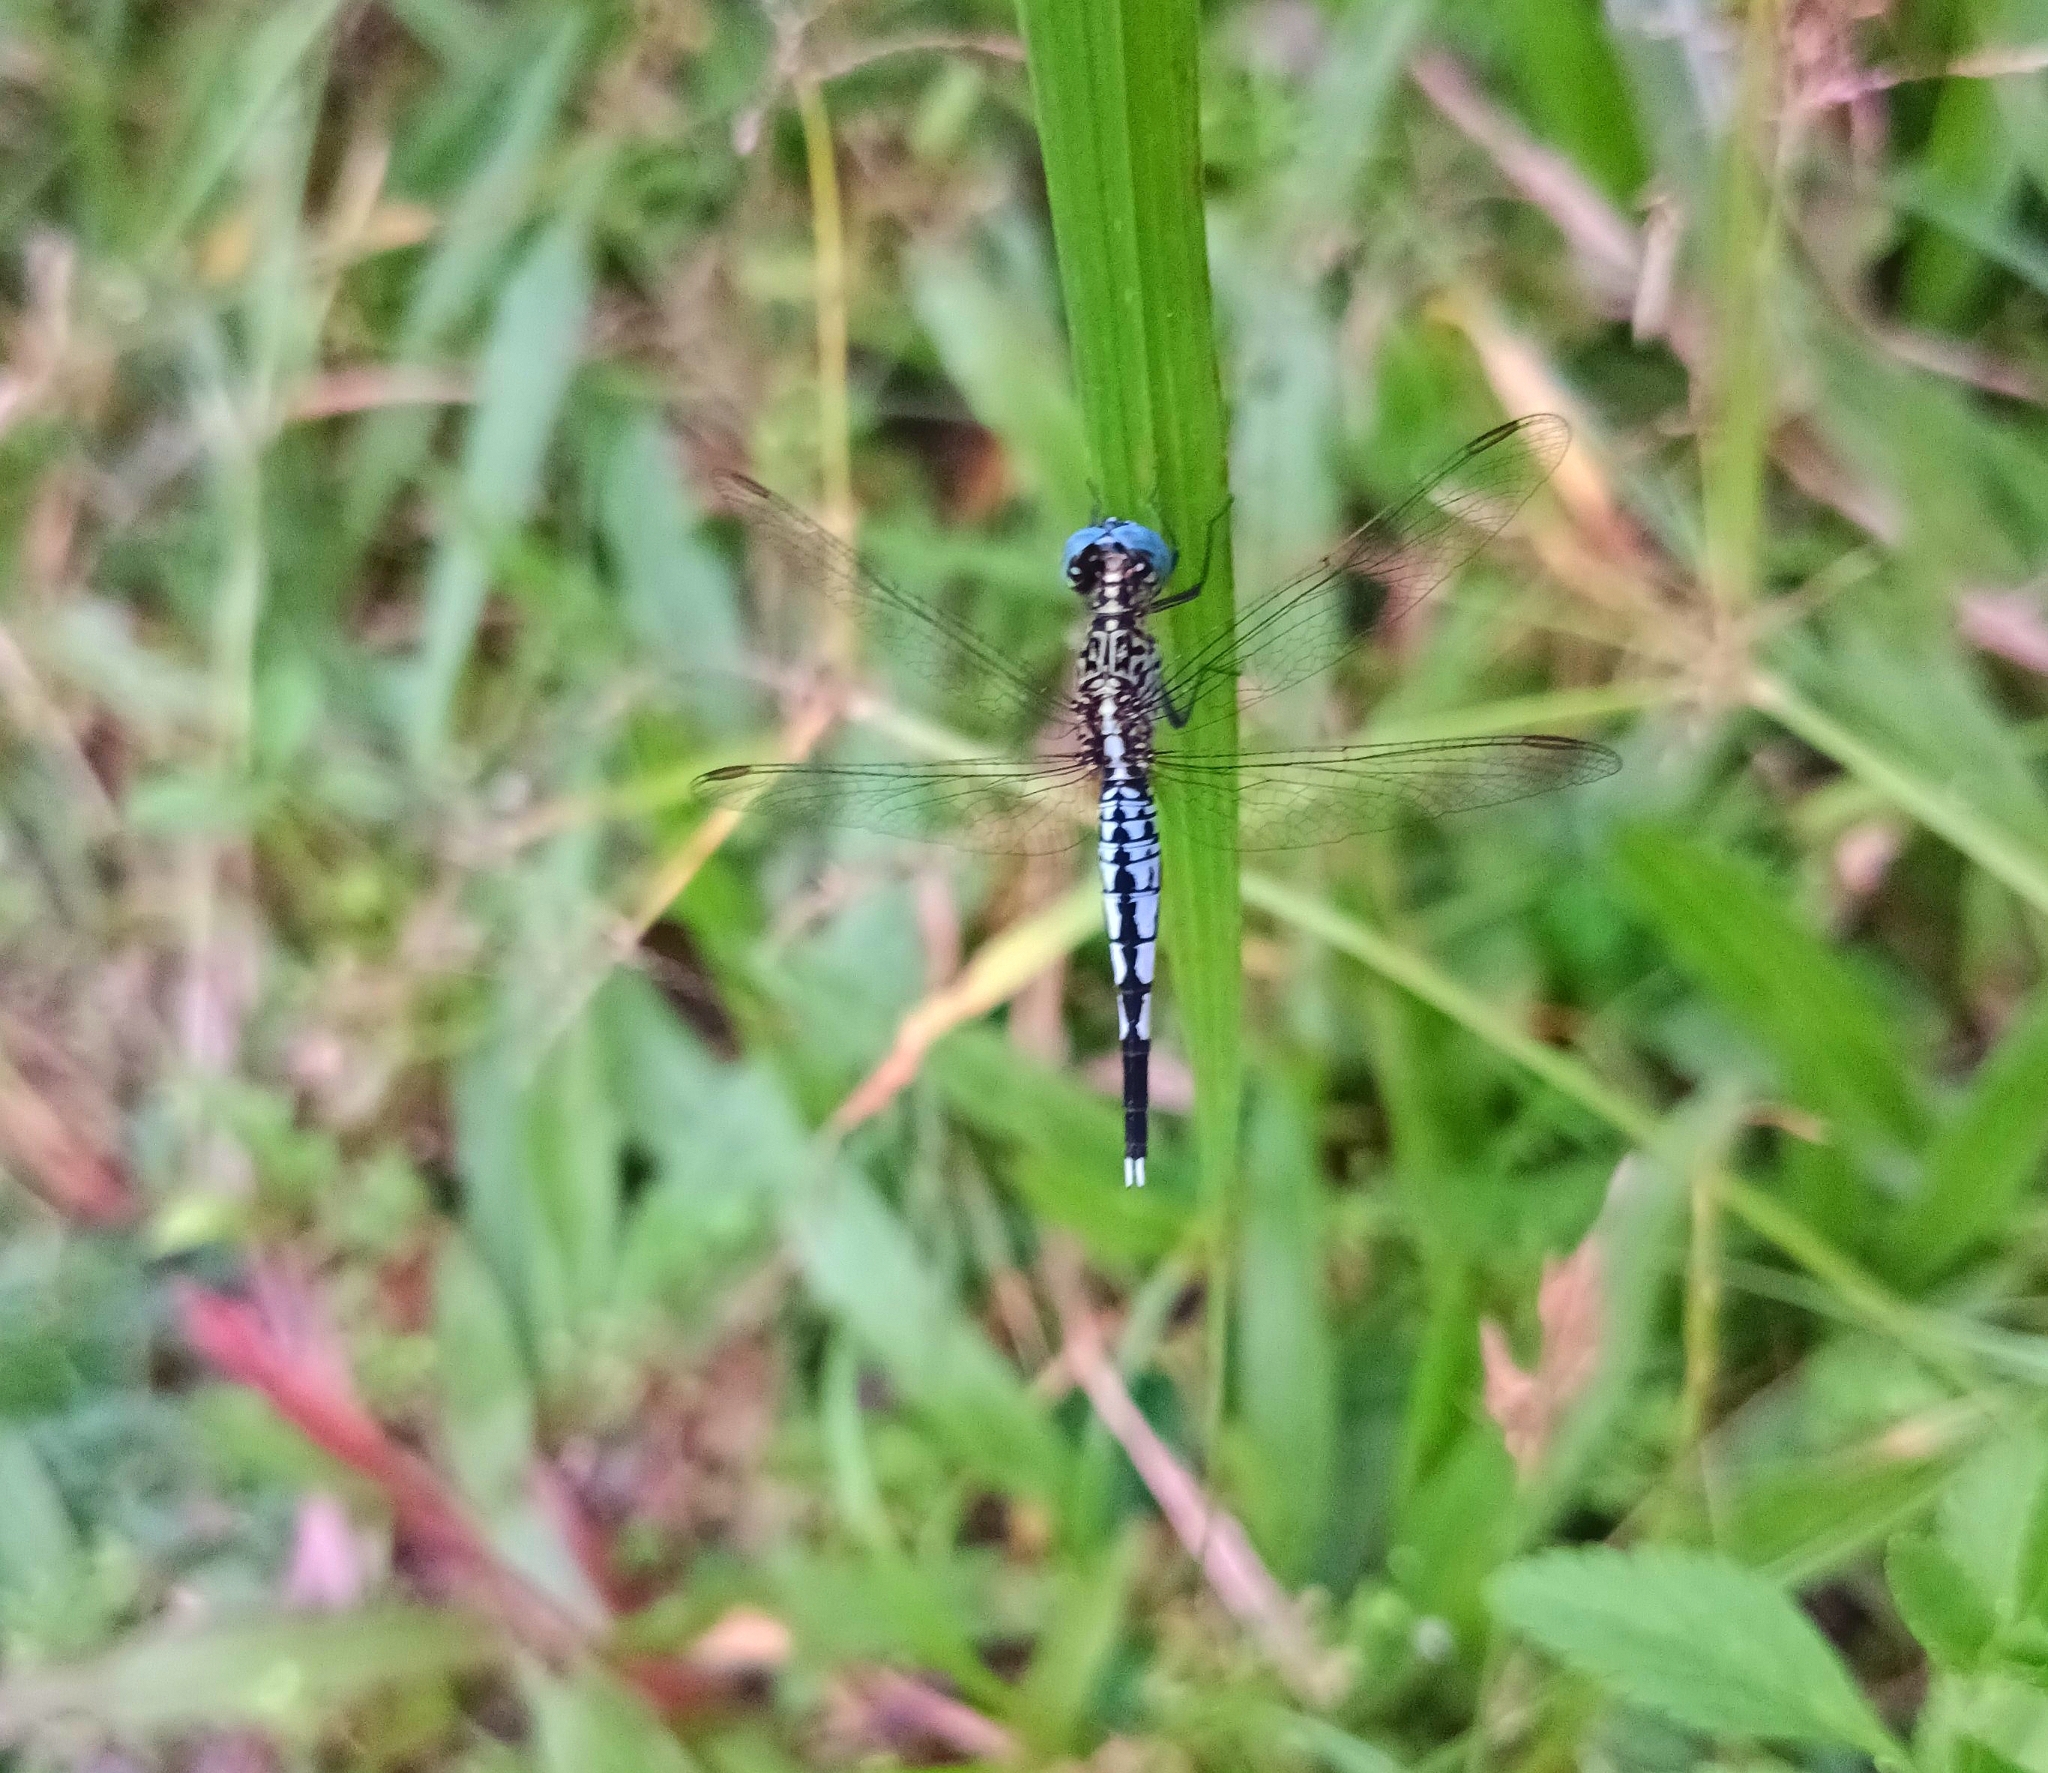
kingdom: Animalia
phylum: Arthropoda
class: Insecta
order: Odonata
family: Libellulidae
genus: Acisoma
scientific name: Acisoma panorpoides
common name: Asian pintail
